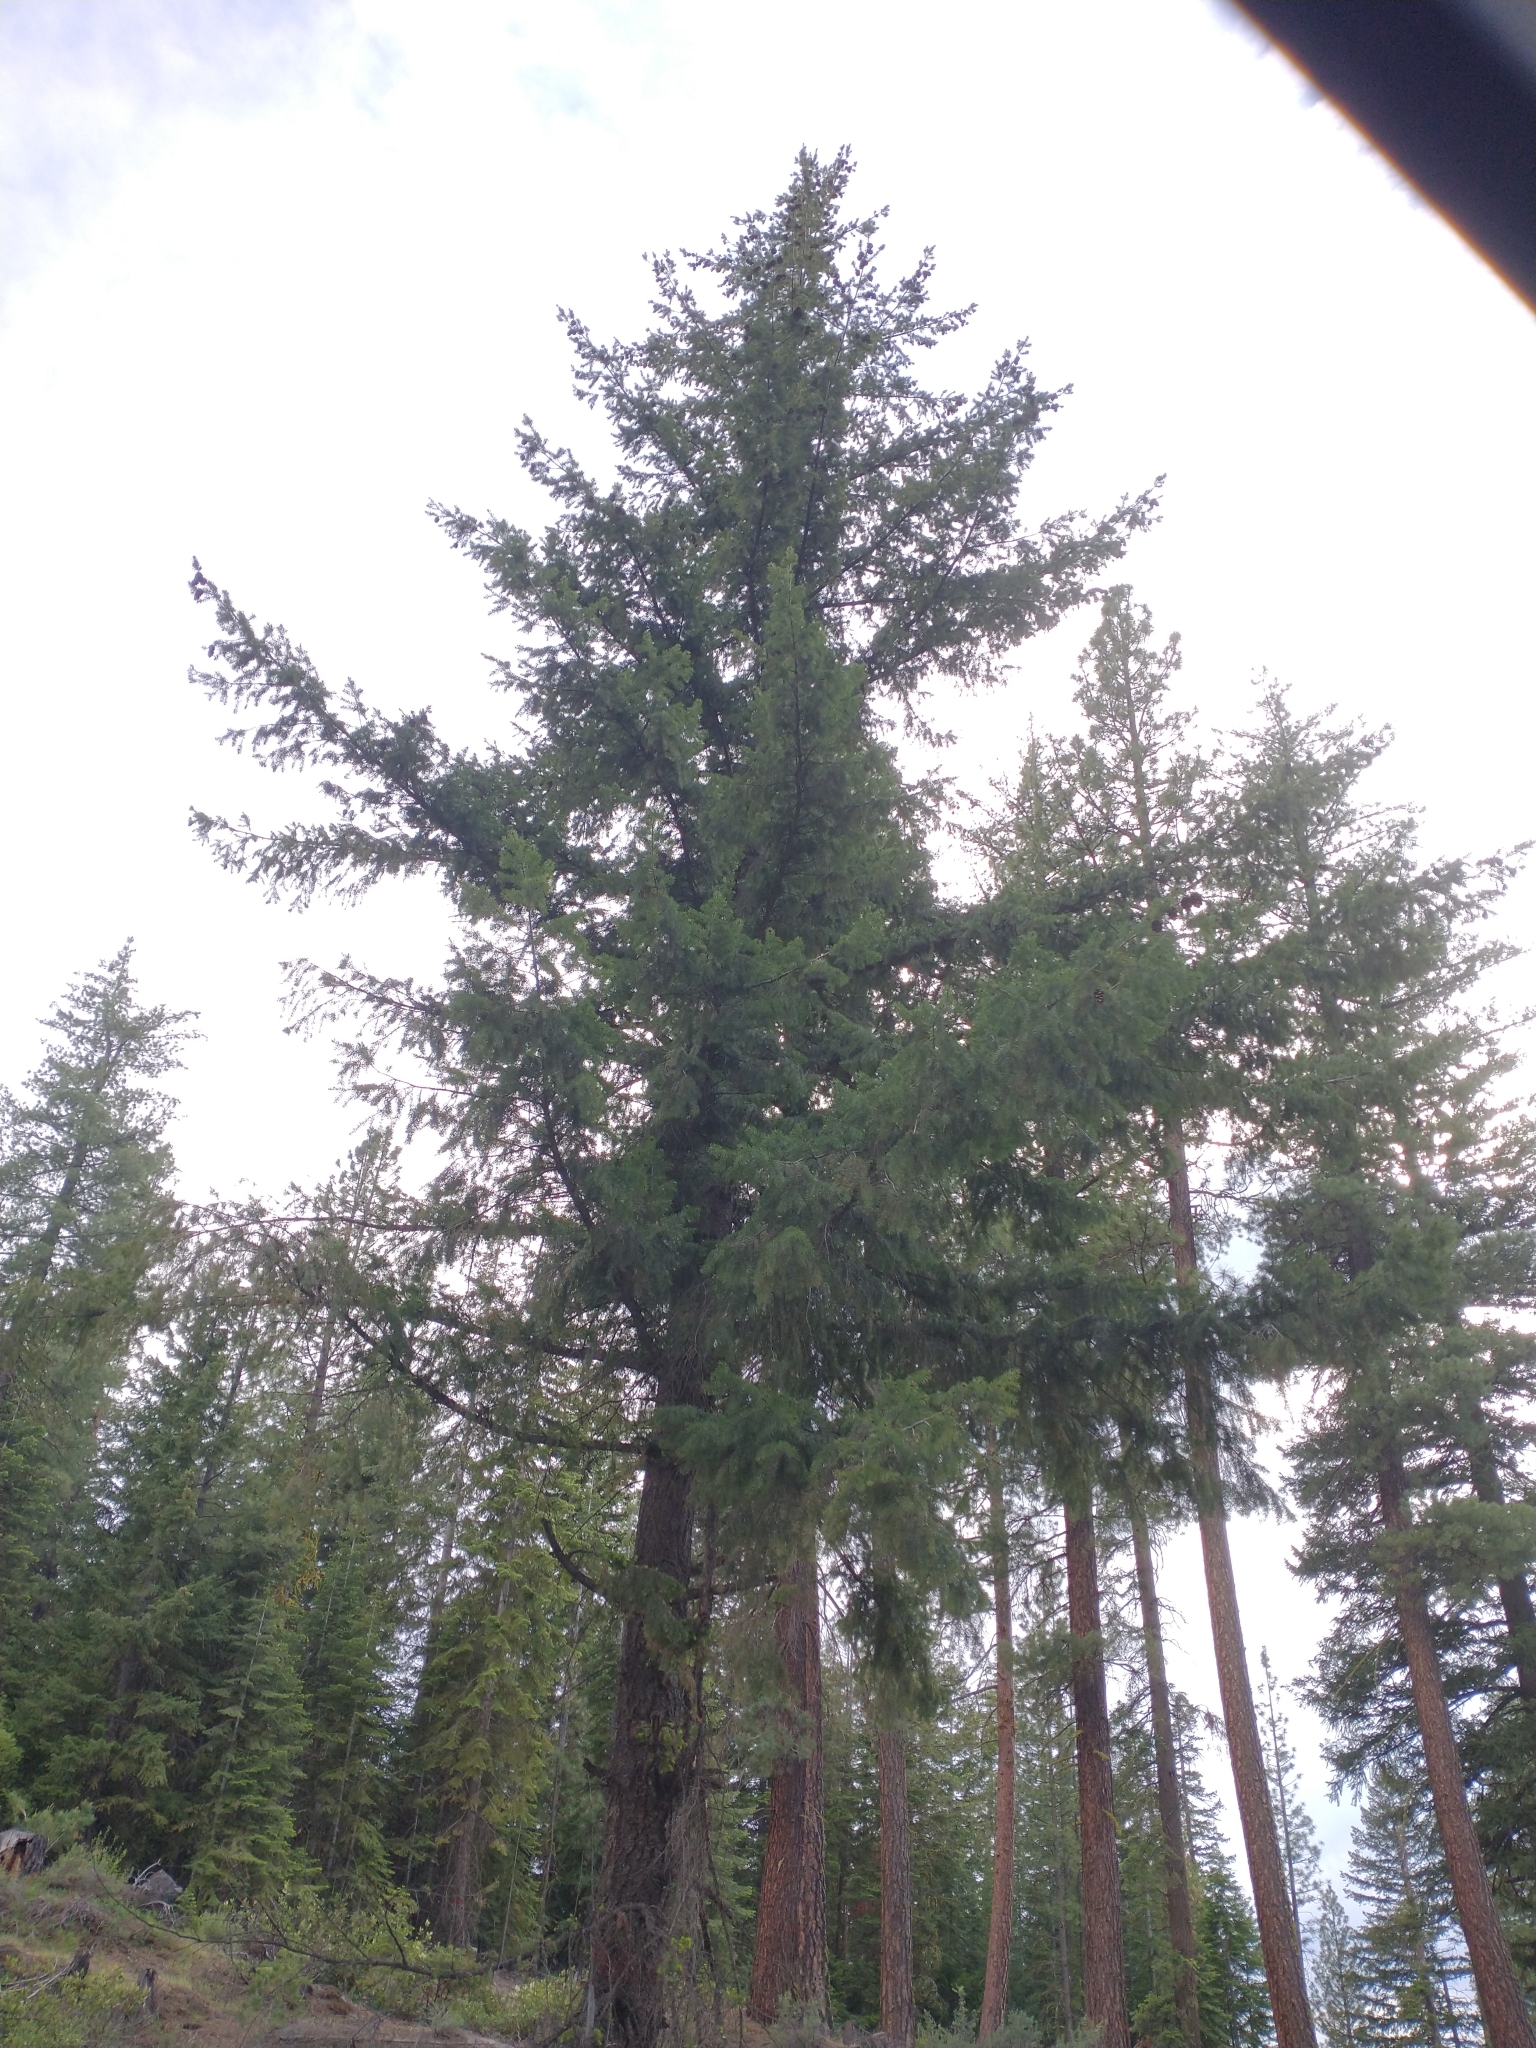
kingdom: Plantae
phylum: Tracheophyta
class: Pinopsida
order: Pinales
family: Pinaceae
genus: Pseudotsuga
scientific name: Pseudotsuga menziesii
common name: Douglas fir
